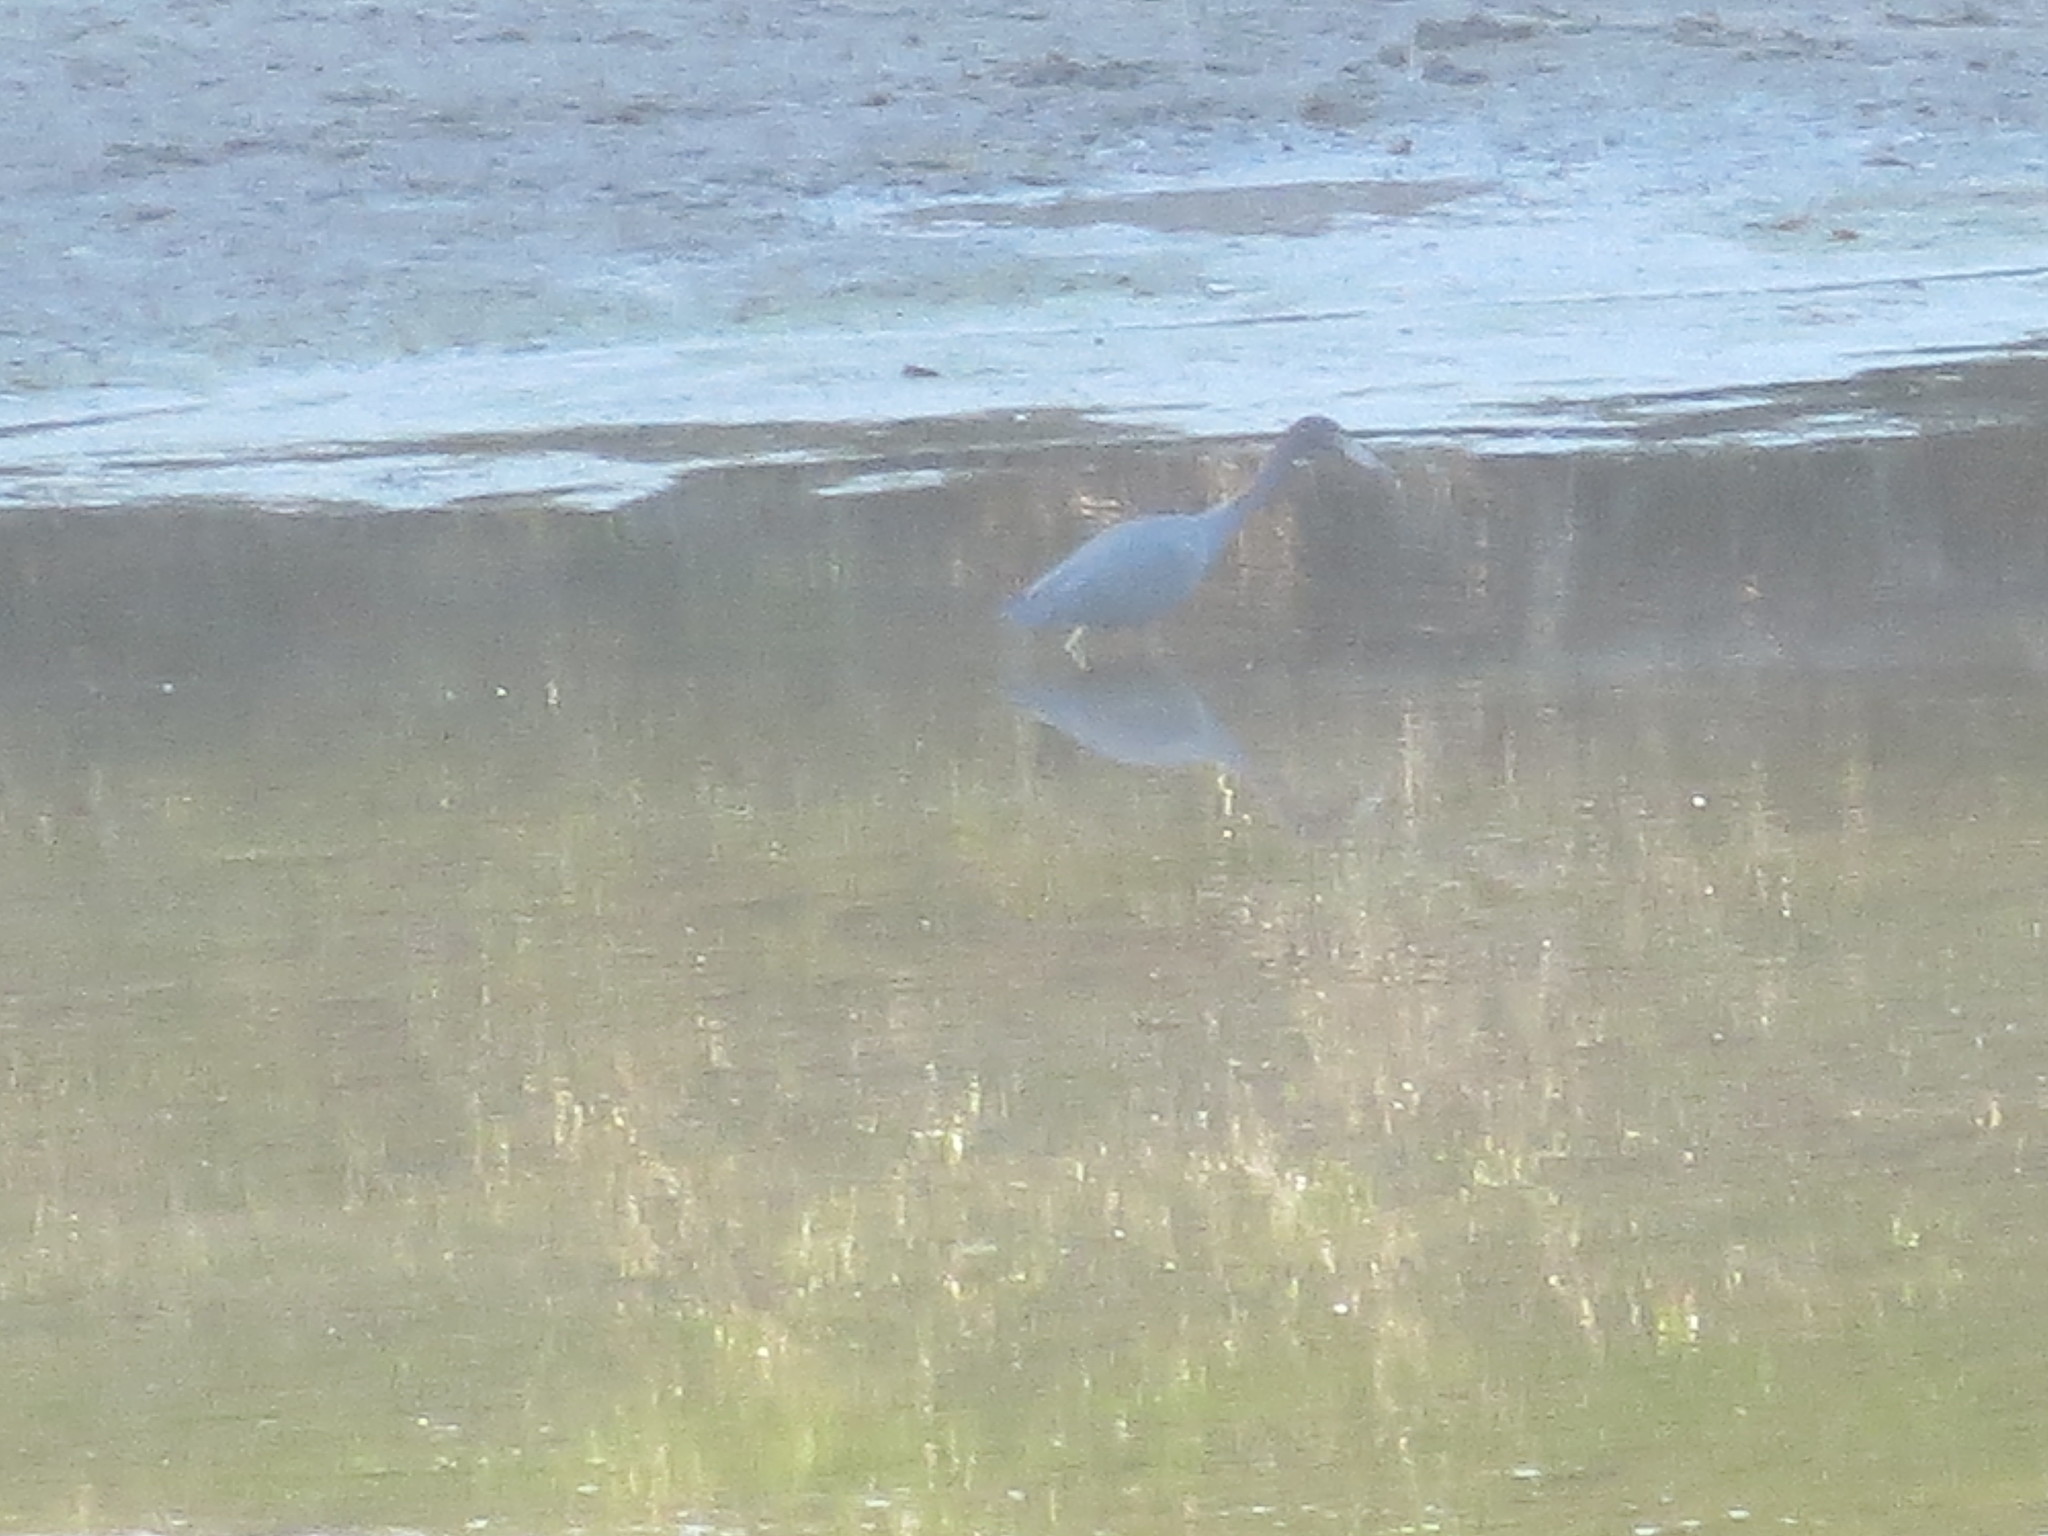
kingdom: Animalia
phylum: Chordata
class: Aves
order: Pelecaniformes
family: Ardeidae
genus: Egretta
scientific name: Egretta caerulea
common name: Little blue heron
